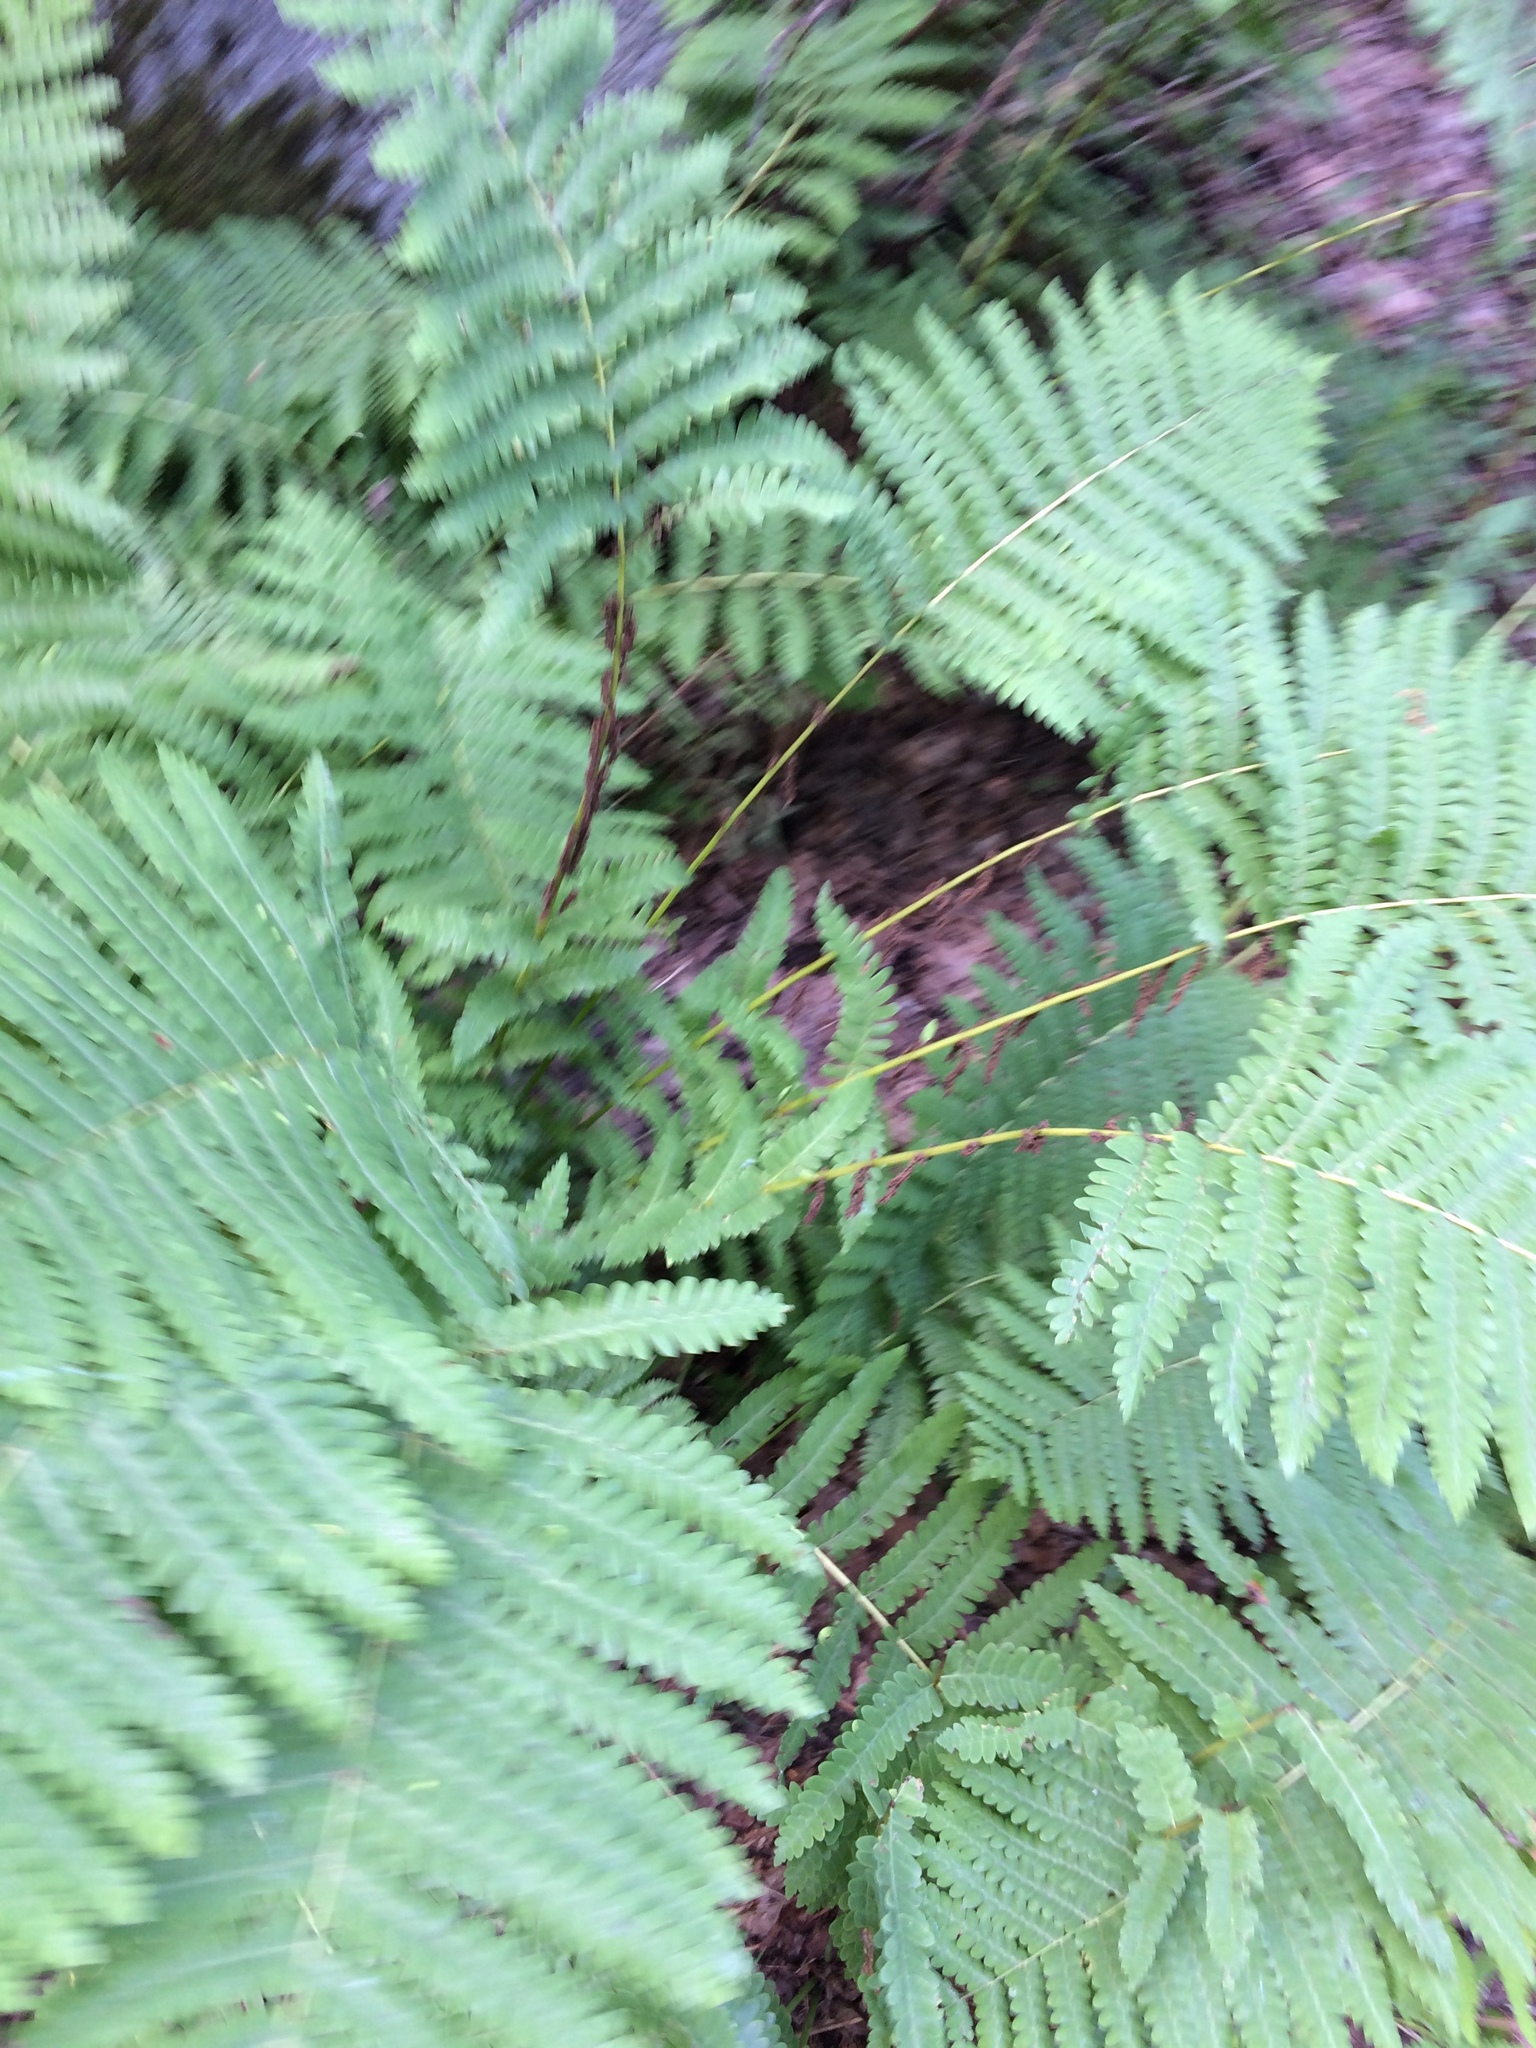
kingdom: Plantae
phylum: Tracheophyta
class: Polypodiopsida
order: Osmundales
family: Osmundaceae
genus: Claytosmunda
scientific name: Claytosmunda claytoniana
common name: Clayton's fern
